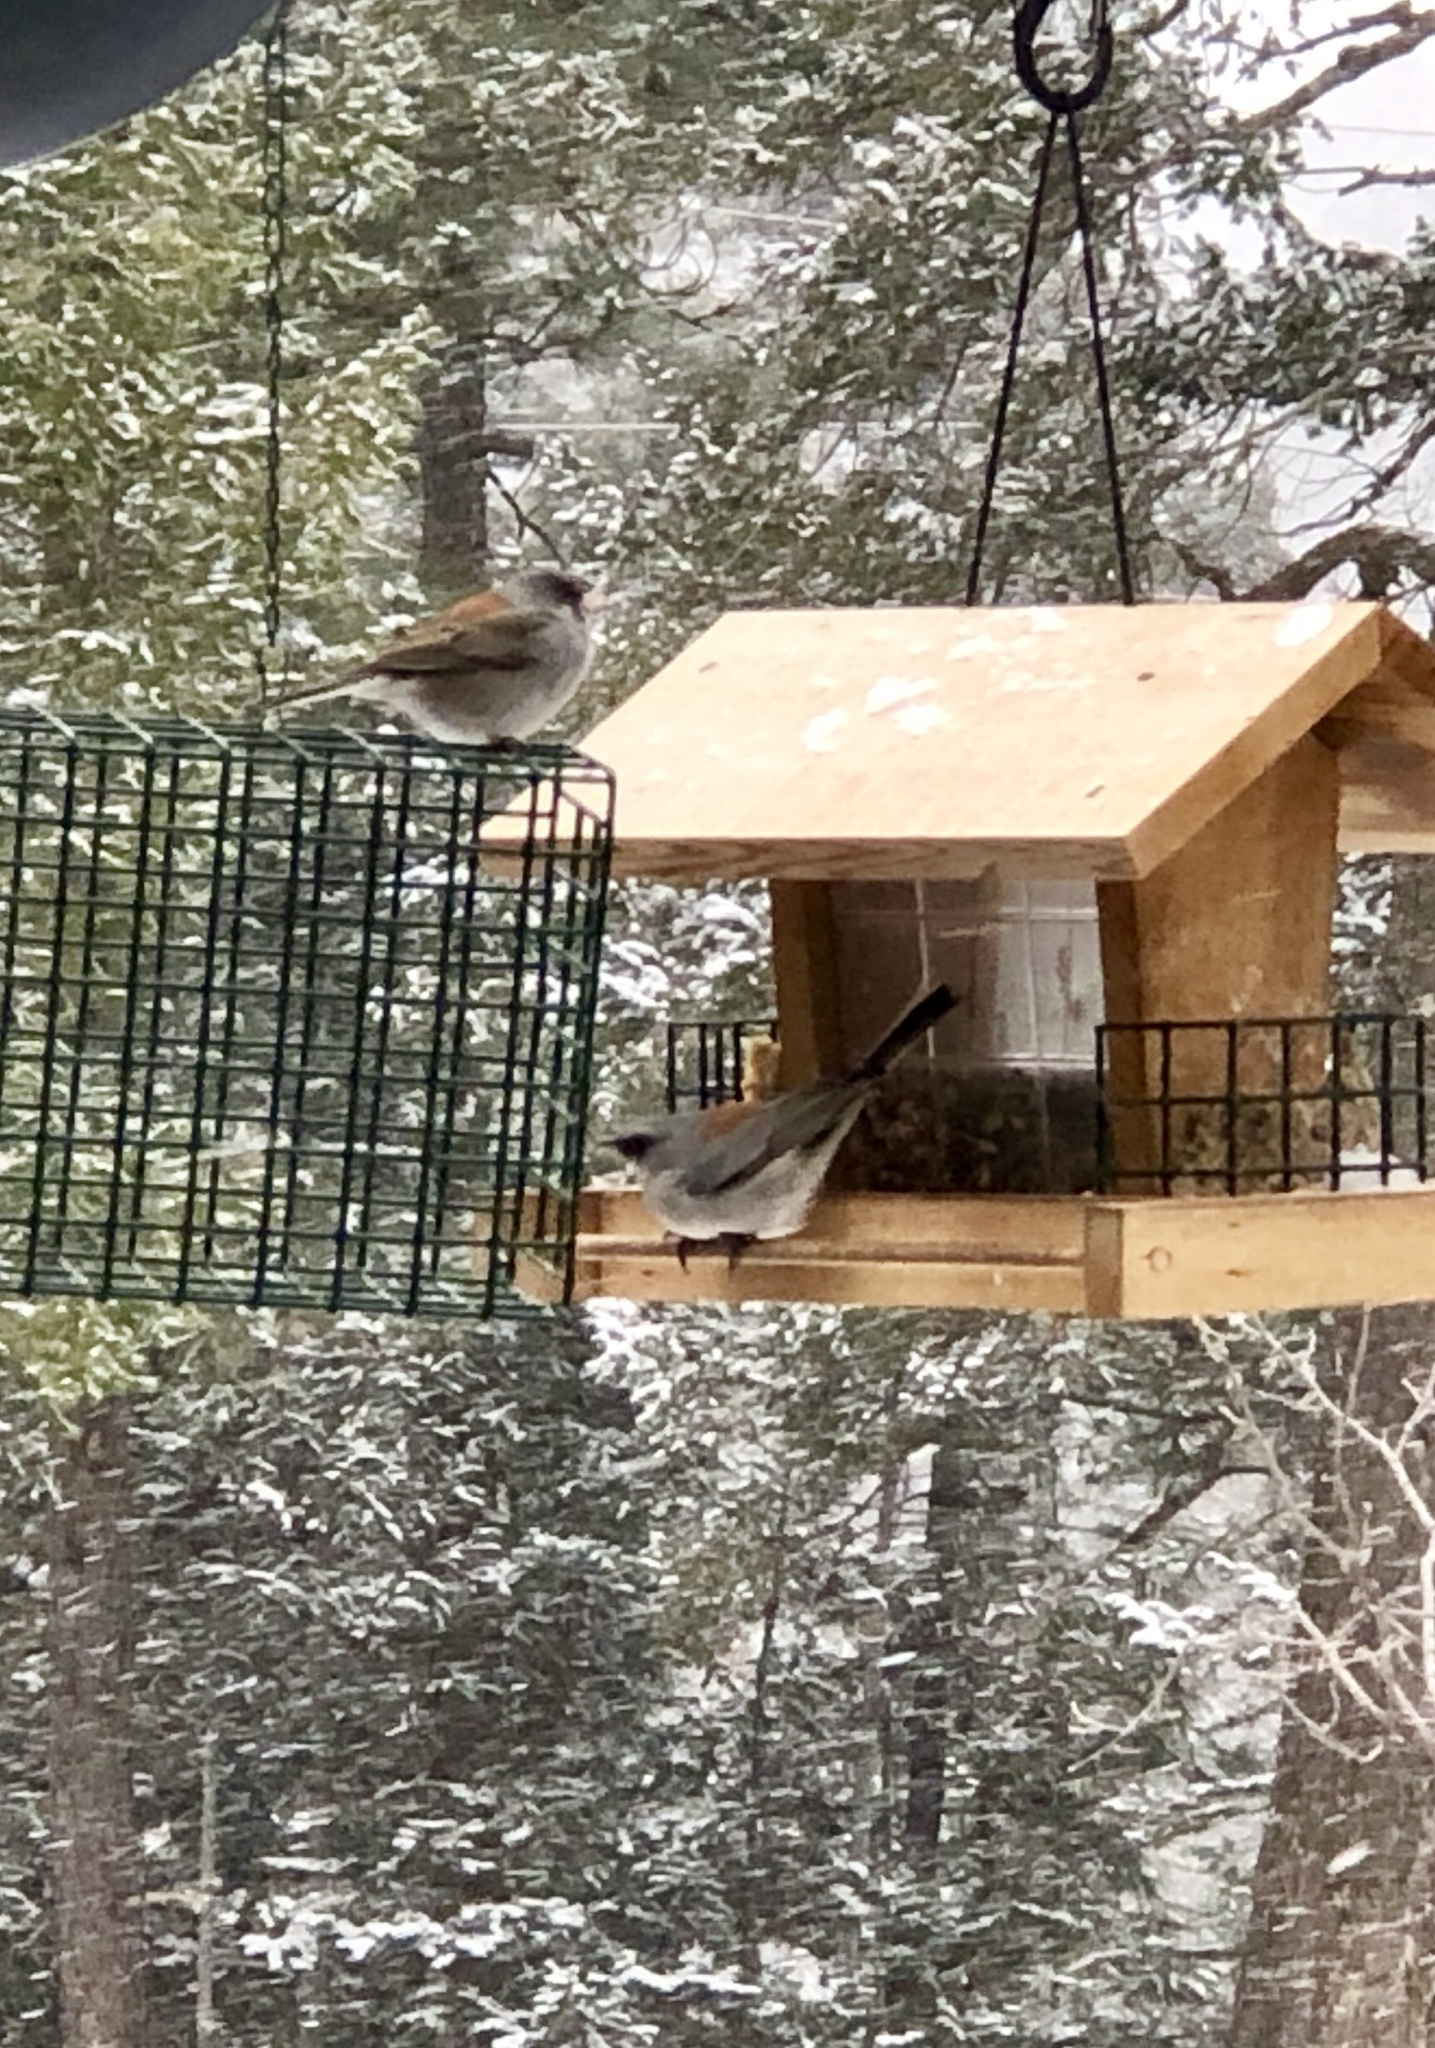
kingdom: Animalia
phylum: Chordata
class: Aves
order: Passeriformes
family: Passerellidae
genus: Junco
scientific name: Junco hyemalis
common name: Dark-eyed junco
